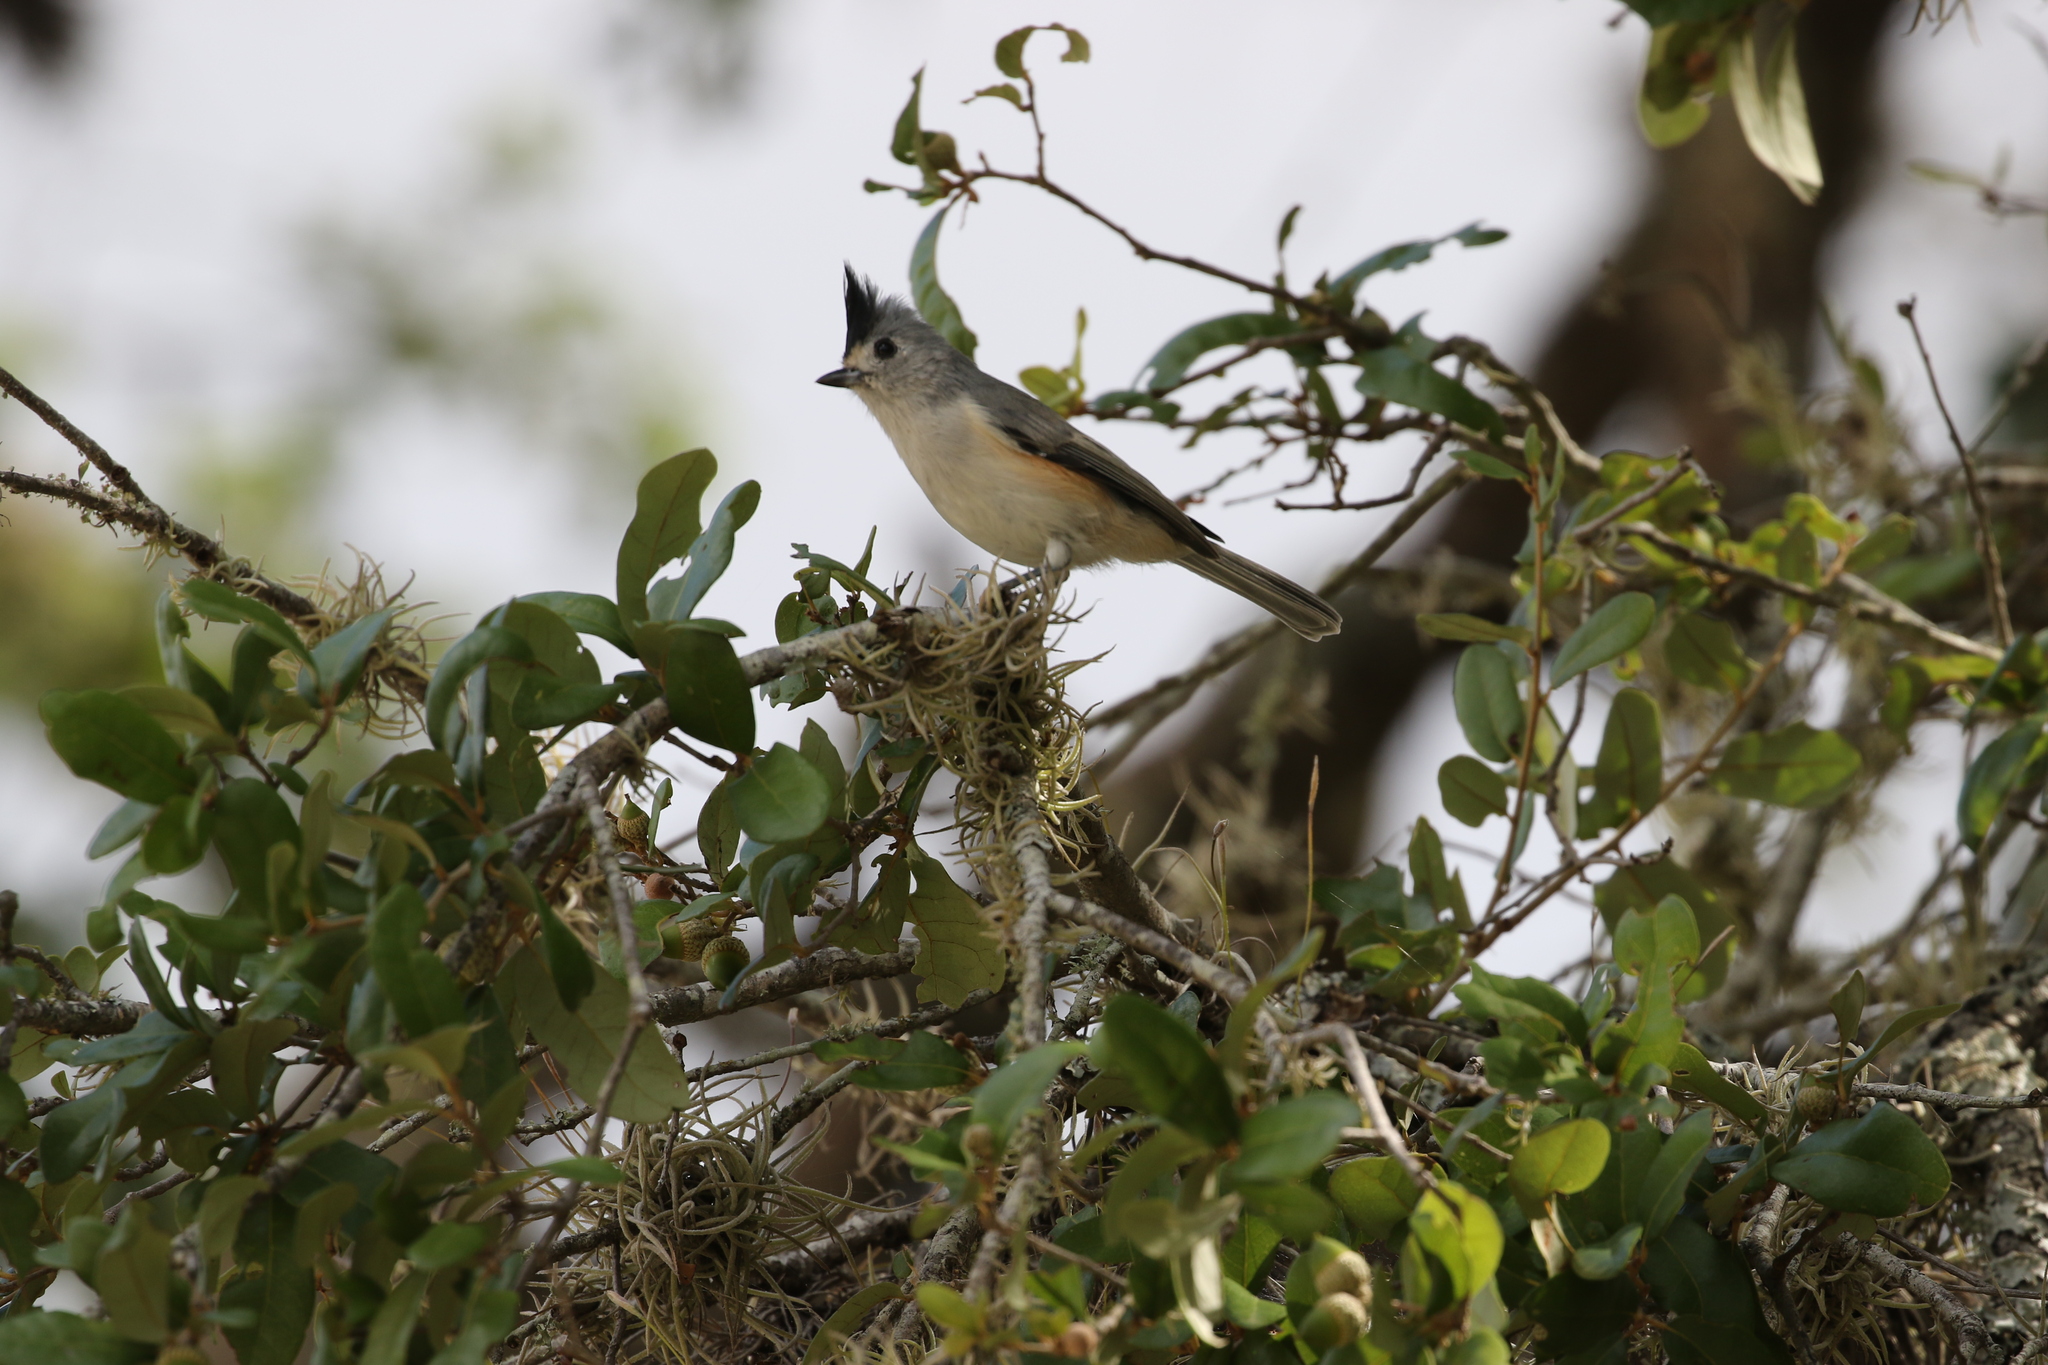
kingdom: Animalia
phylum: Chordata
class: Aves
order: Passeriformes
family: Paridae
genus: Baeolophus
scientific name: Baeolophus atricristatus
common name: Black-crested titmouse
